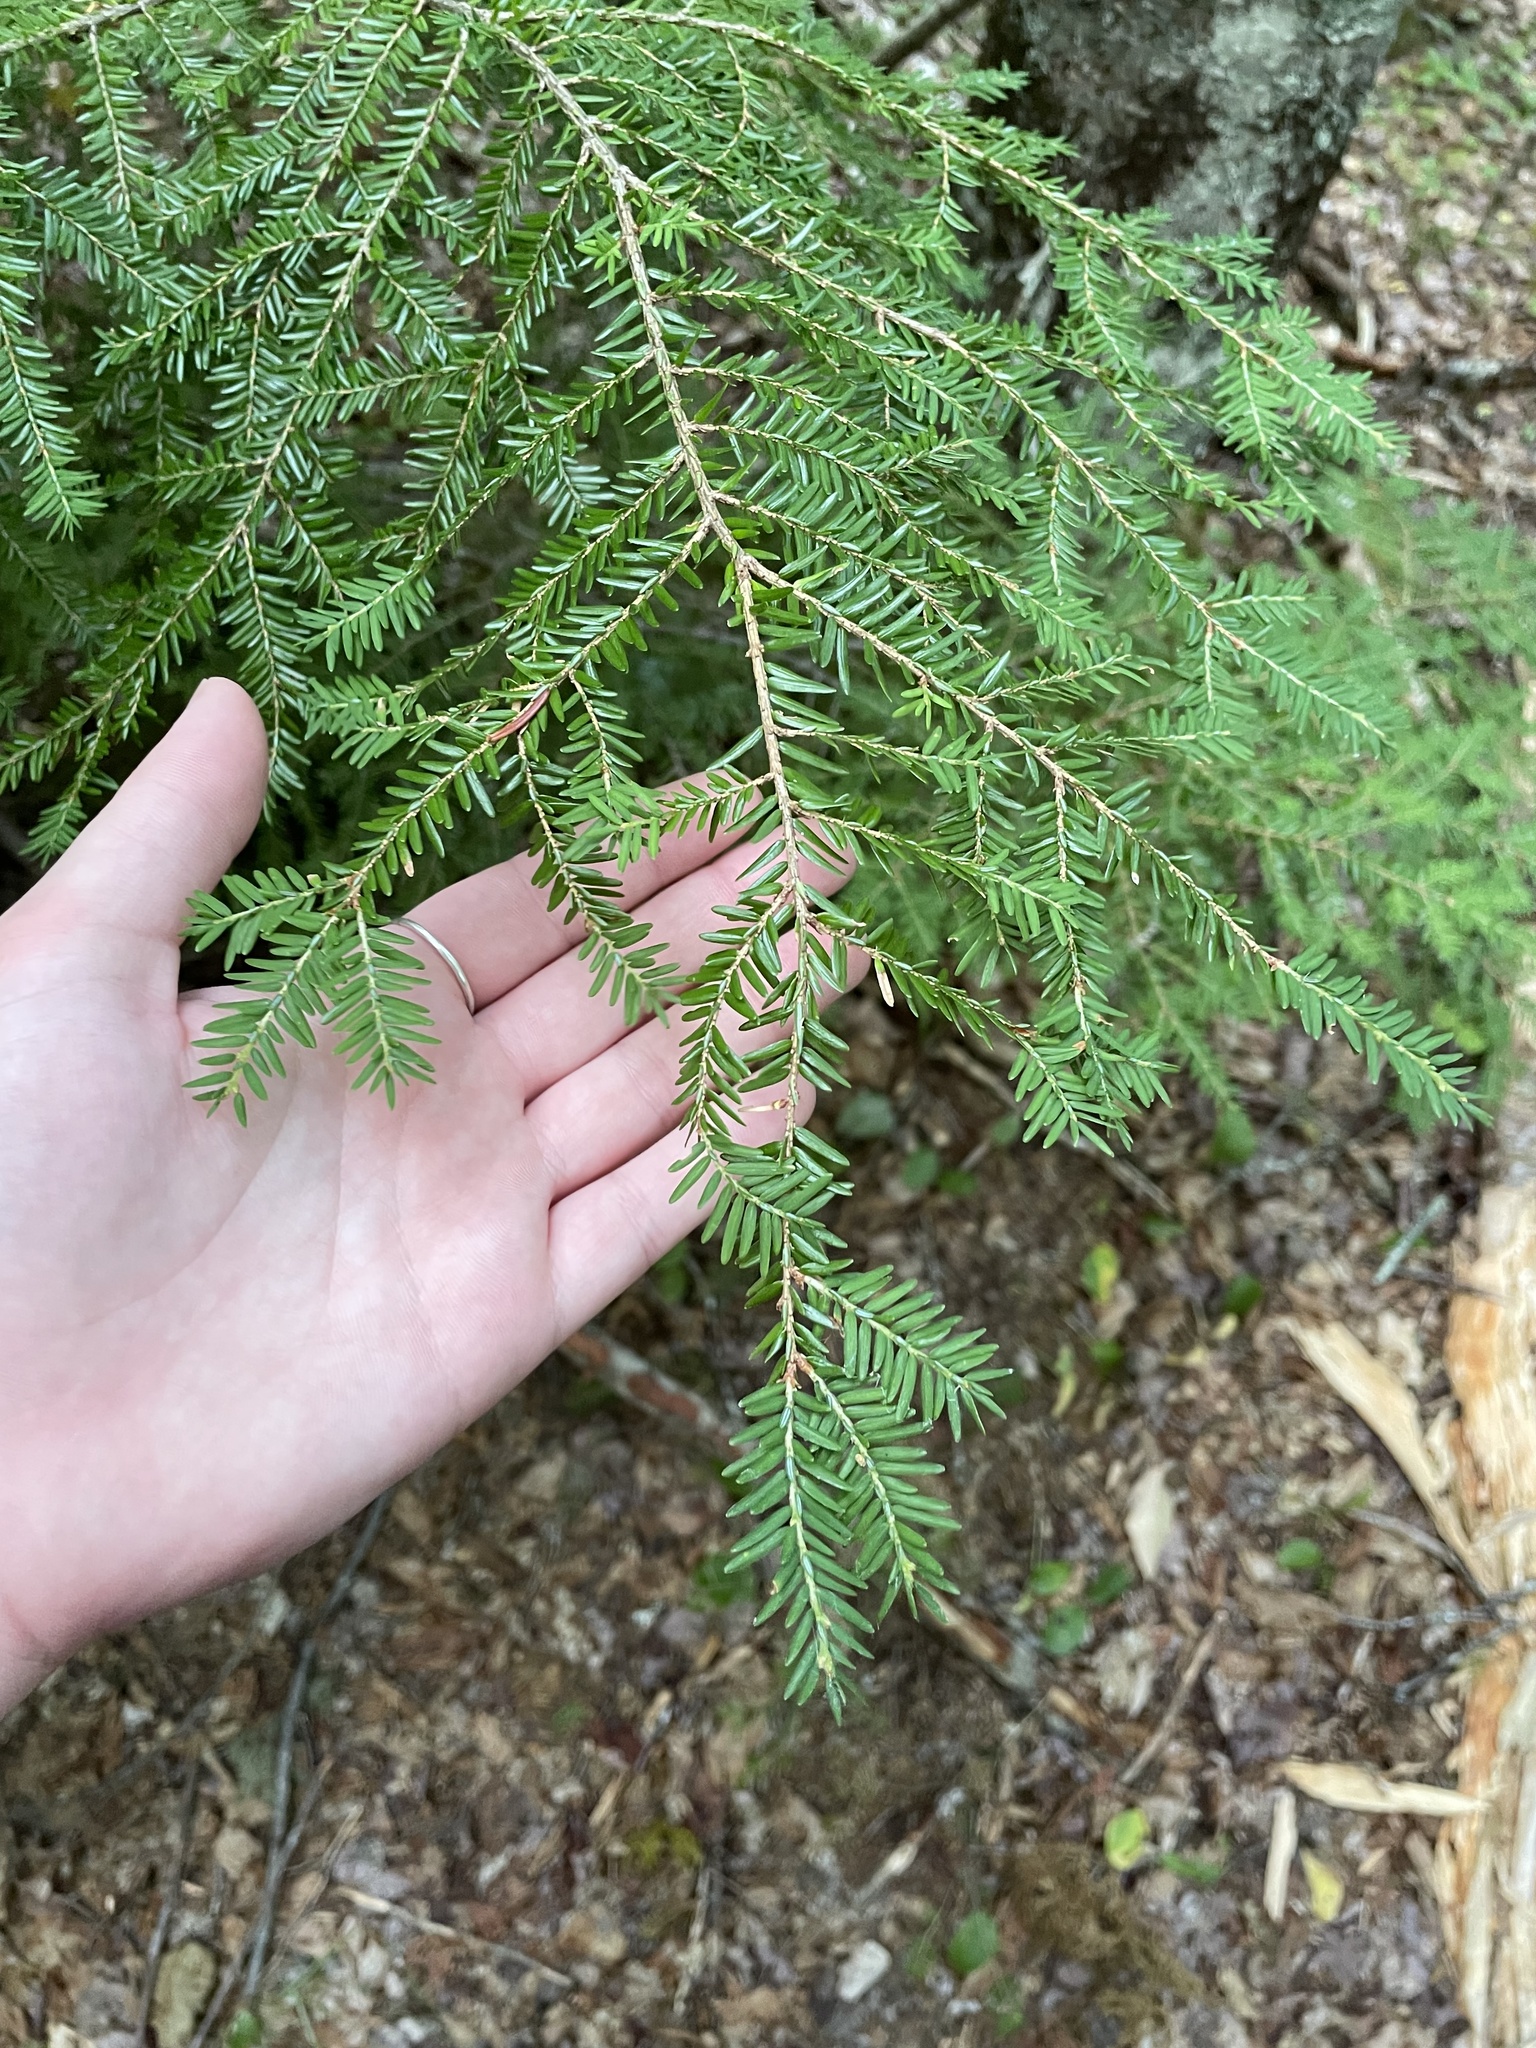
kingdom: Plantae
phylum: Tracheophyta
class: Pinopsida
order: Pinales
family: Pinaceae
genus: Tsuga
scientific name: Tsuga canadensis
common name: Eastern hemlock
